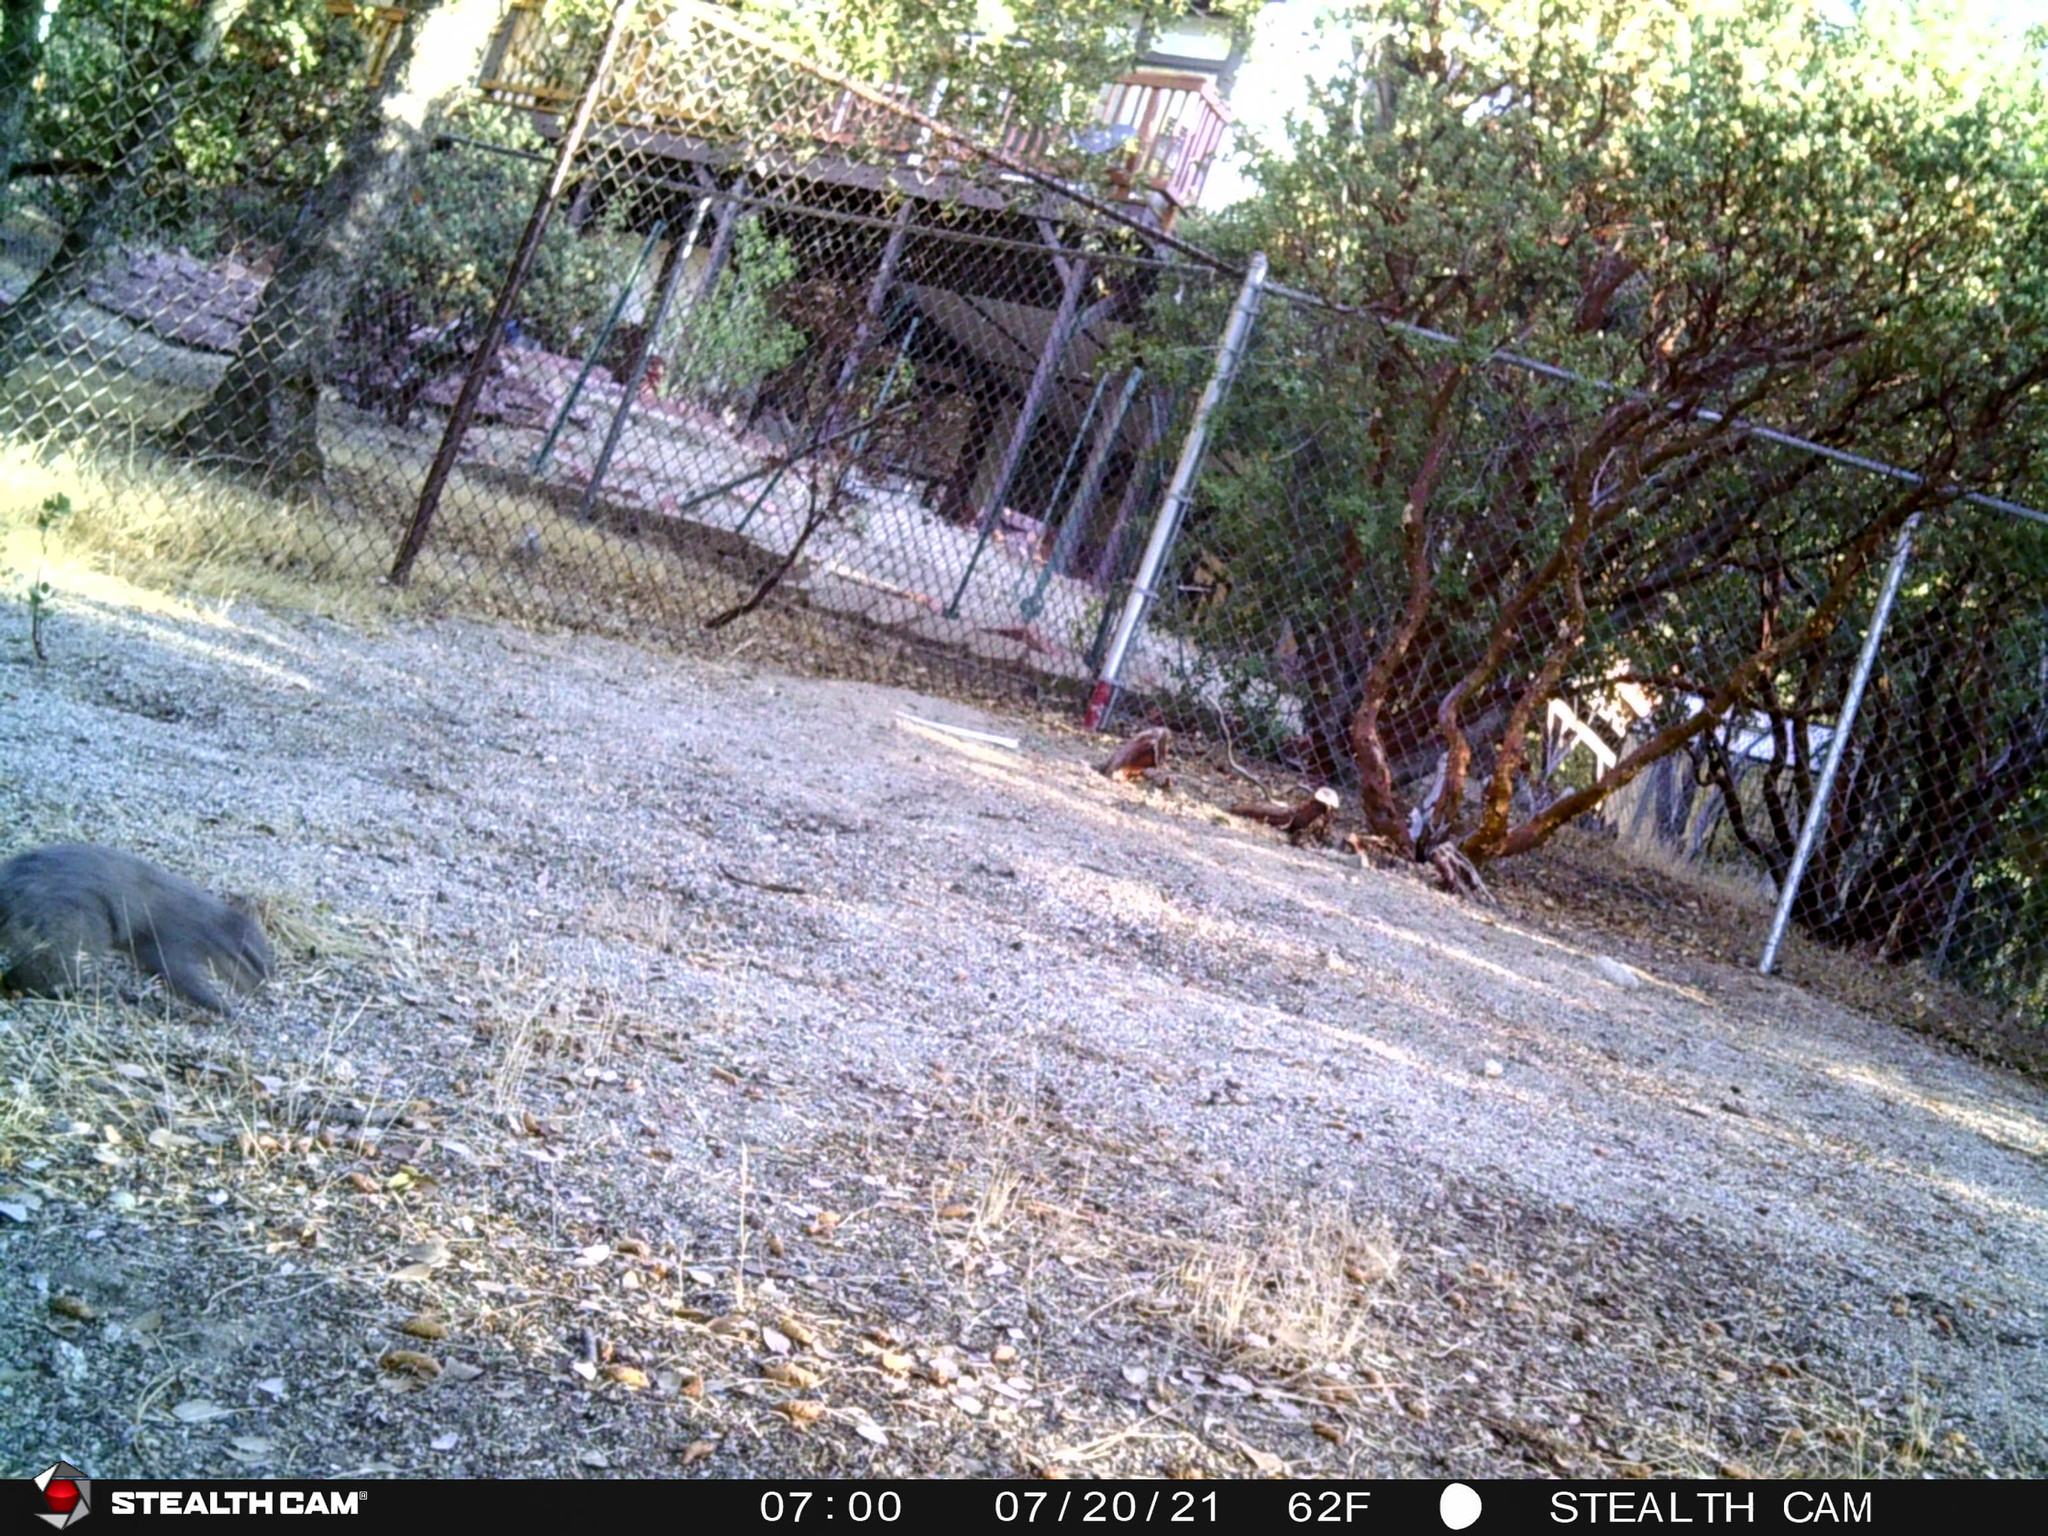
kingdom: Animalia
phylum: Chordata
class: Mammalia
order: Rodentia
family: Sciuridae
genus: Sciurus
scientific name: Sciurus griseus
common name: Western gray squirrel
